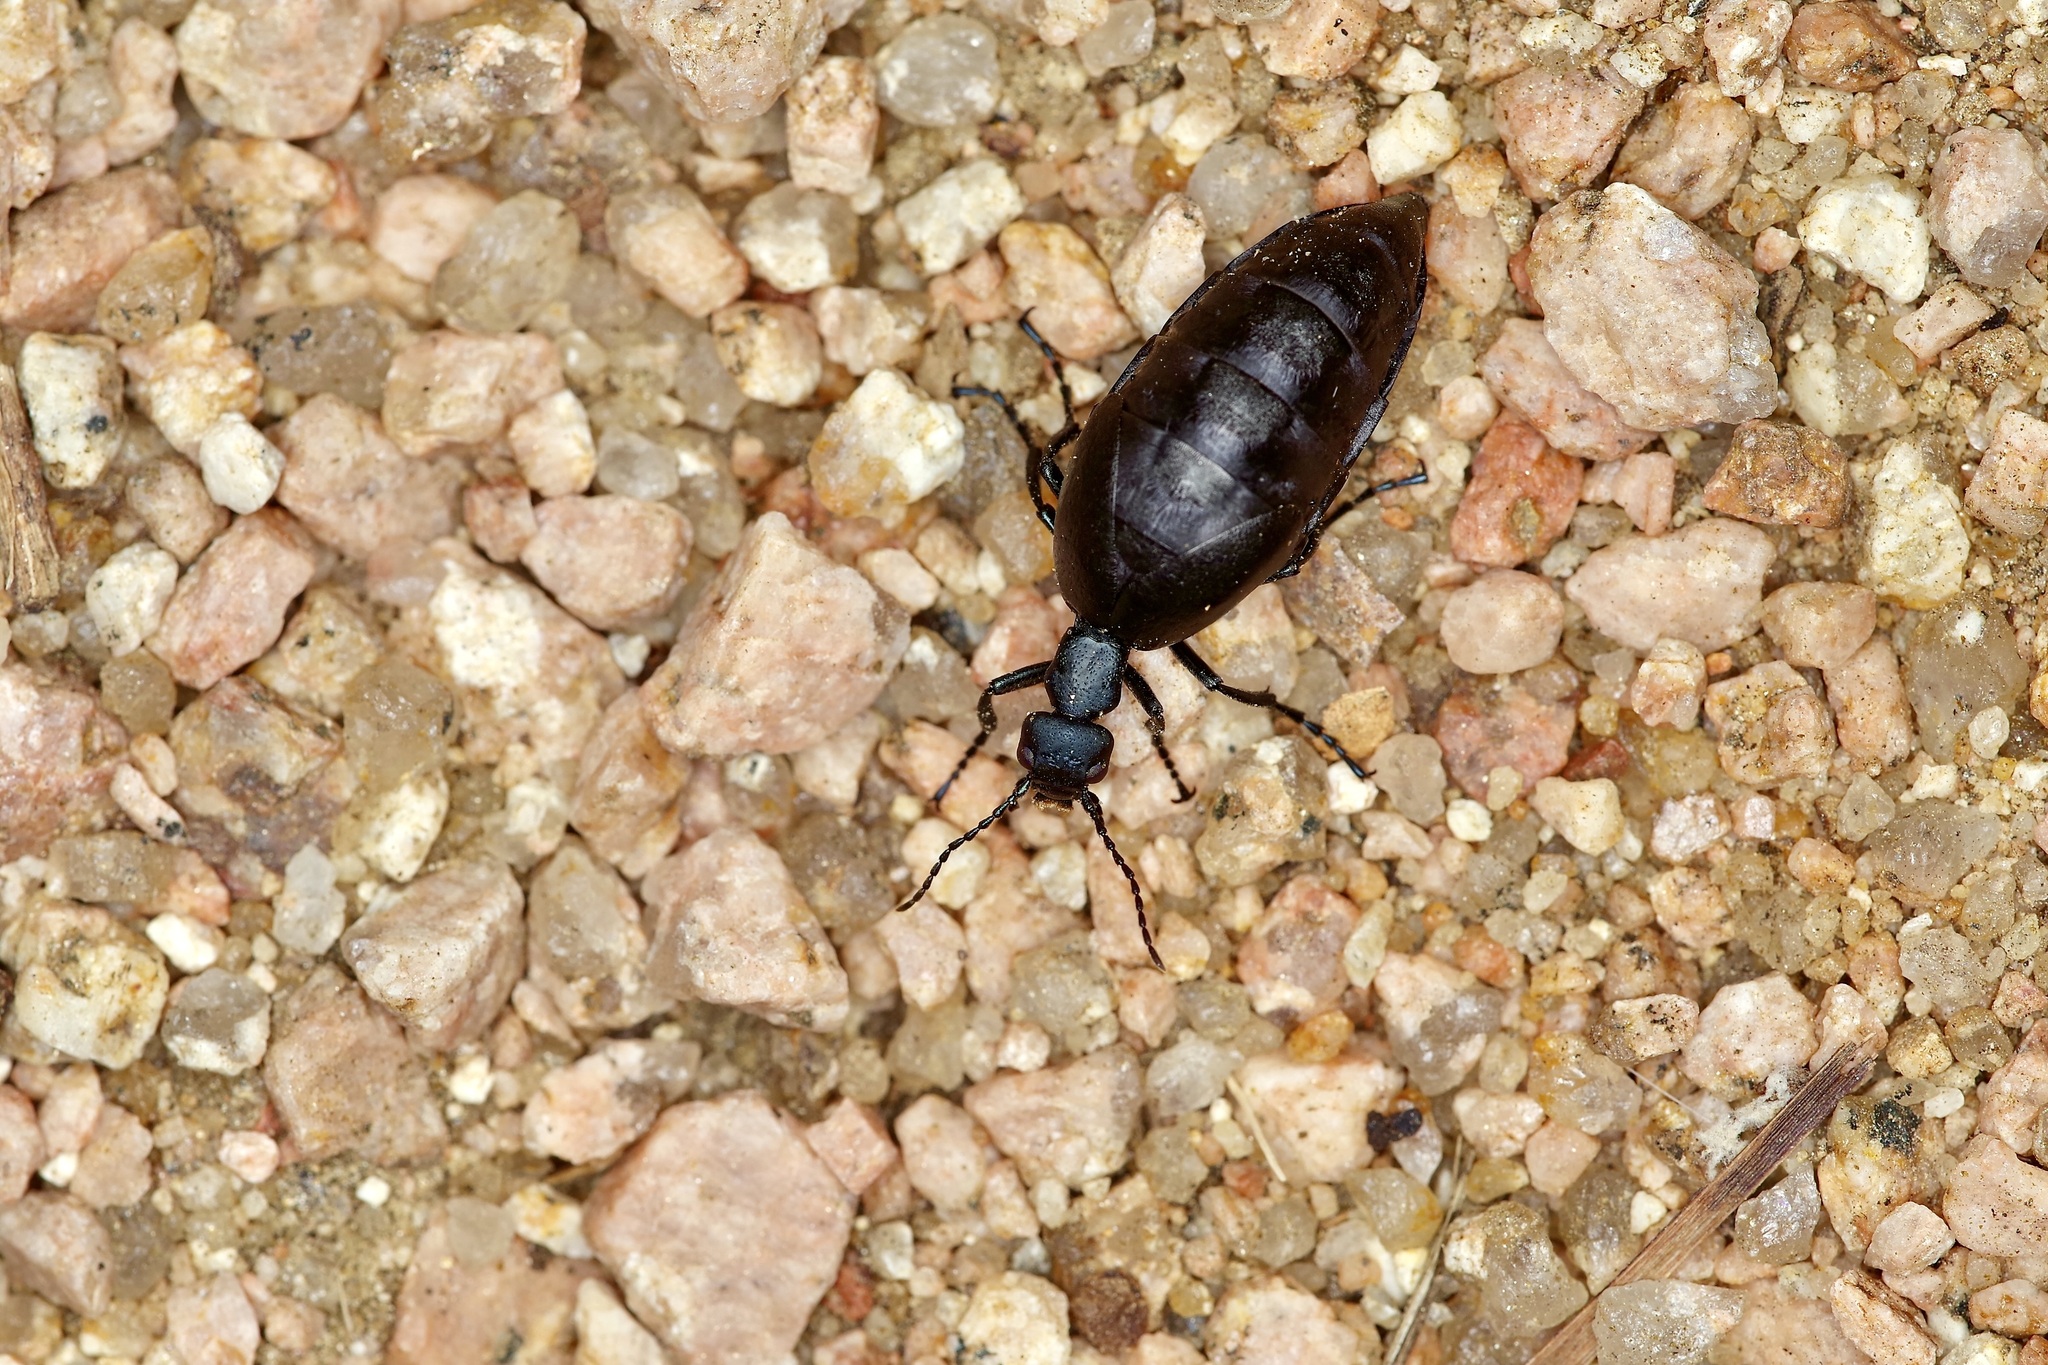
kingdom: Animalia
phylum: Arthropoda
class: Insecta
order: Coleoptera
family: Meloidae
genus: Meloe
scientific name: Meloe americanus
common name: Buttercup oil beetle
